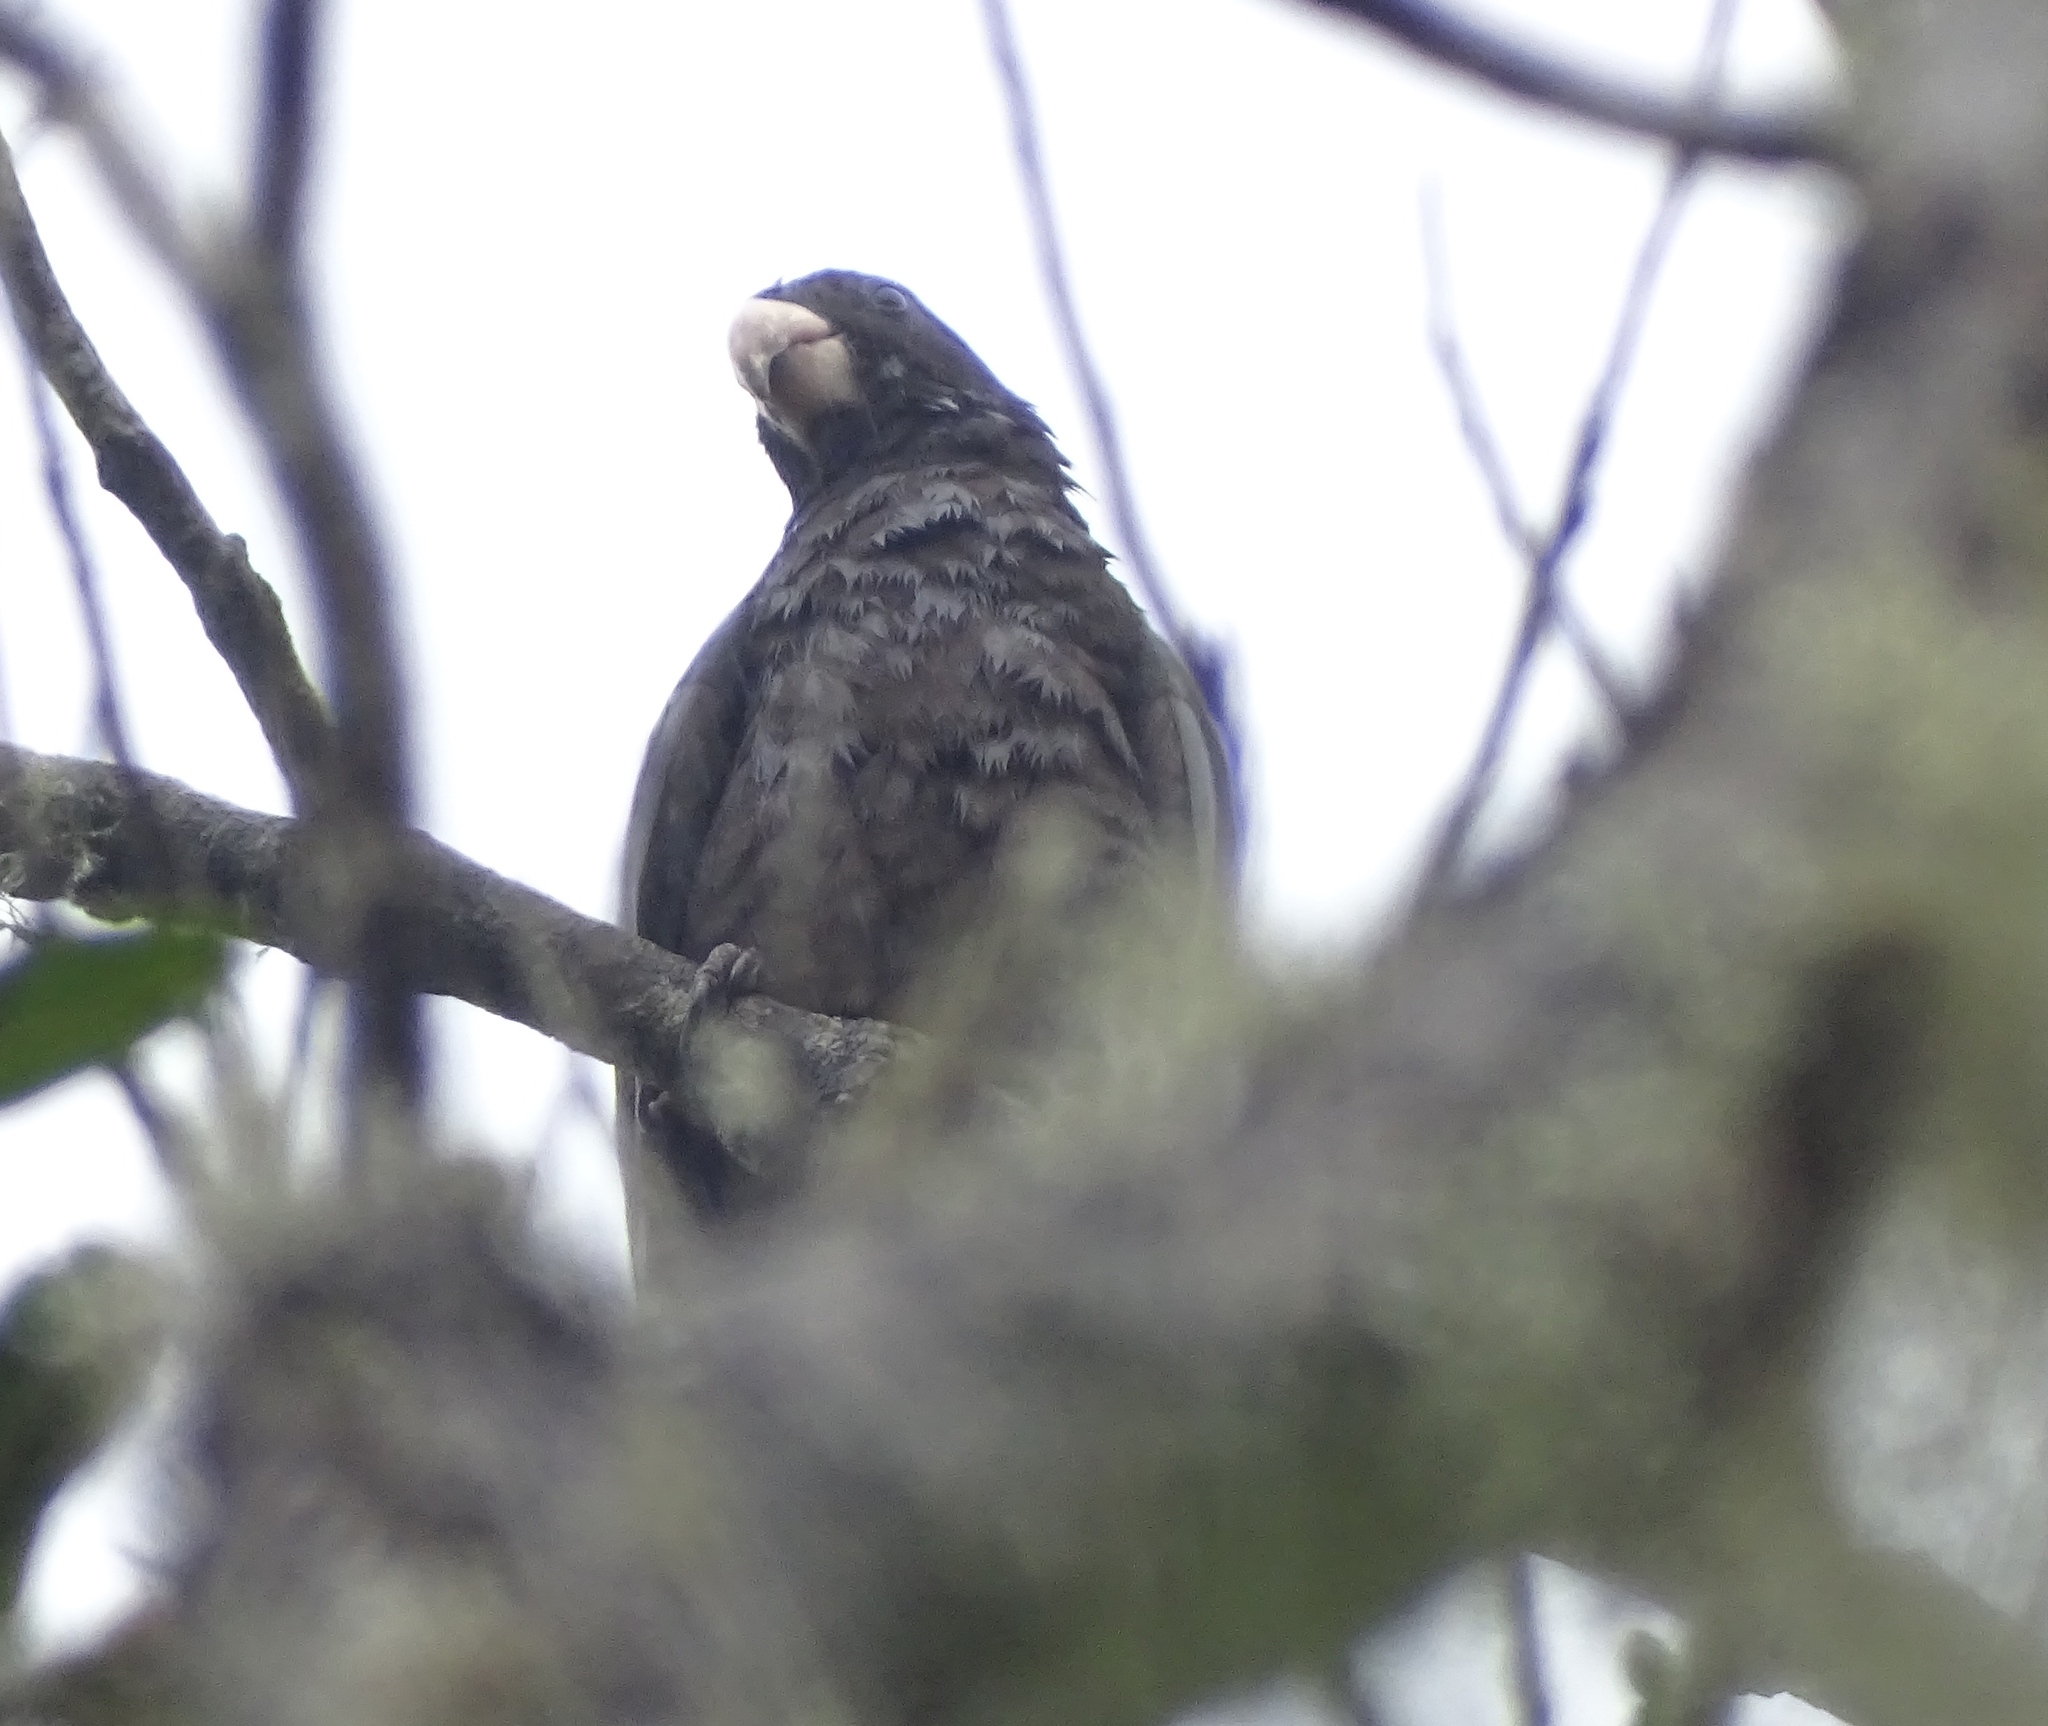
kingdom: Animalia
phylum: Chordata
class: Aves
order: Psittaciformes
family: Psittacidae
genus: Coracopsis
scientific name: Coracopsis nigra
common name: Lesser vasa parrot
